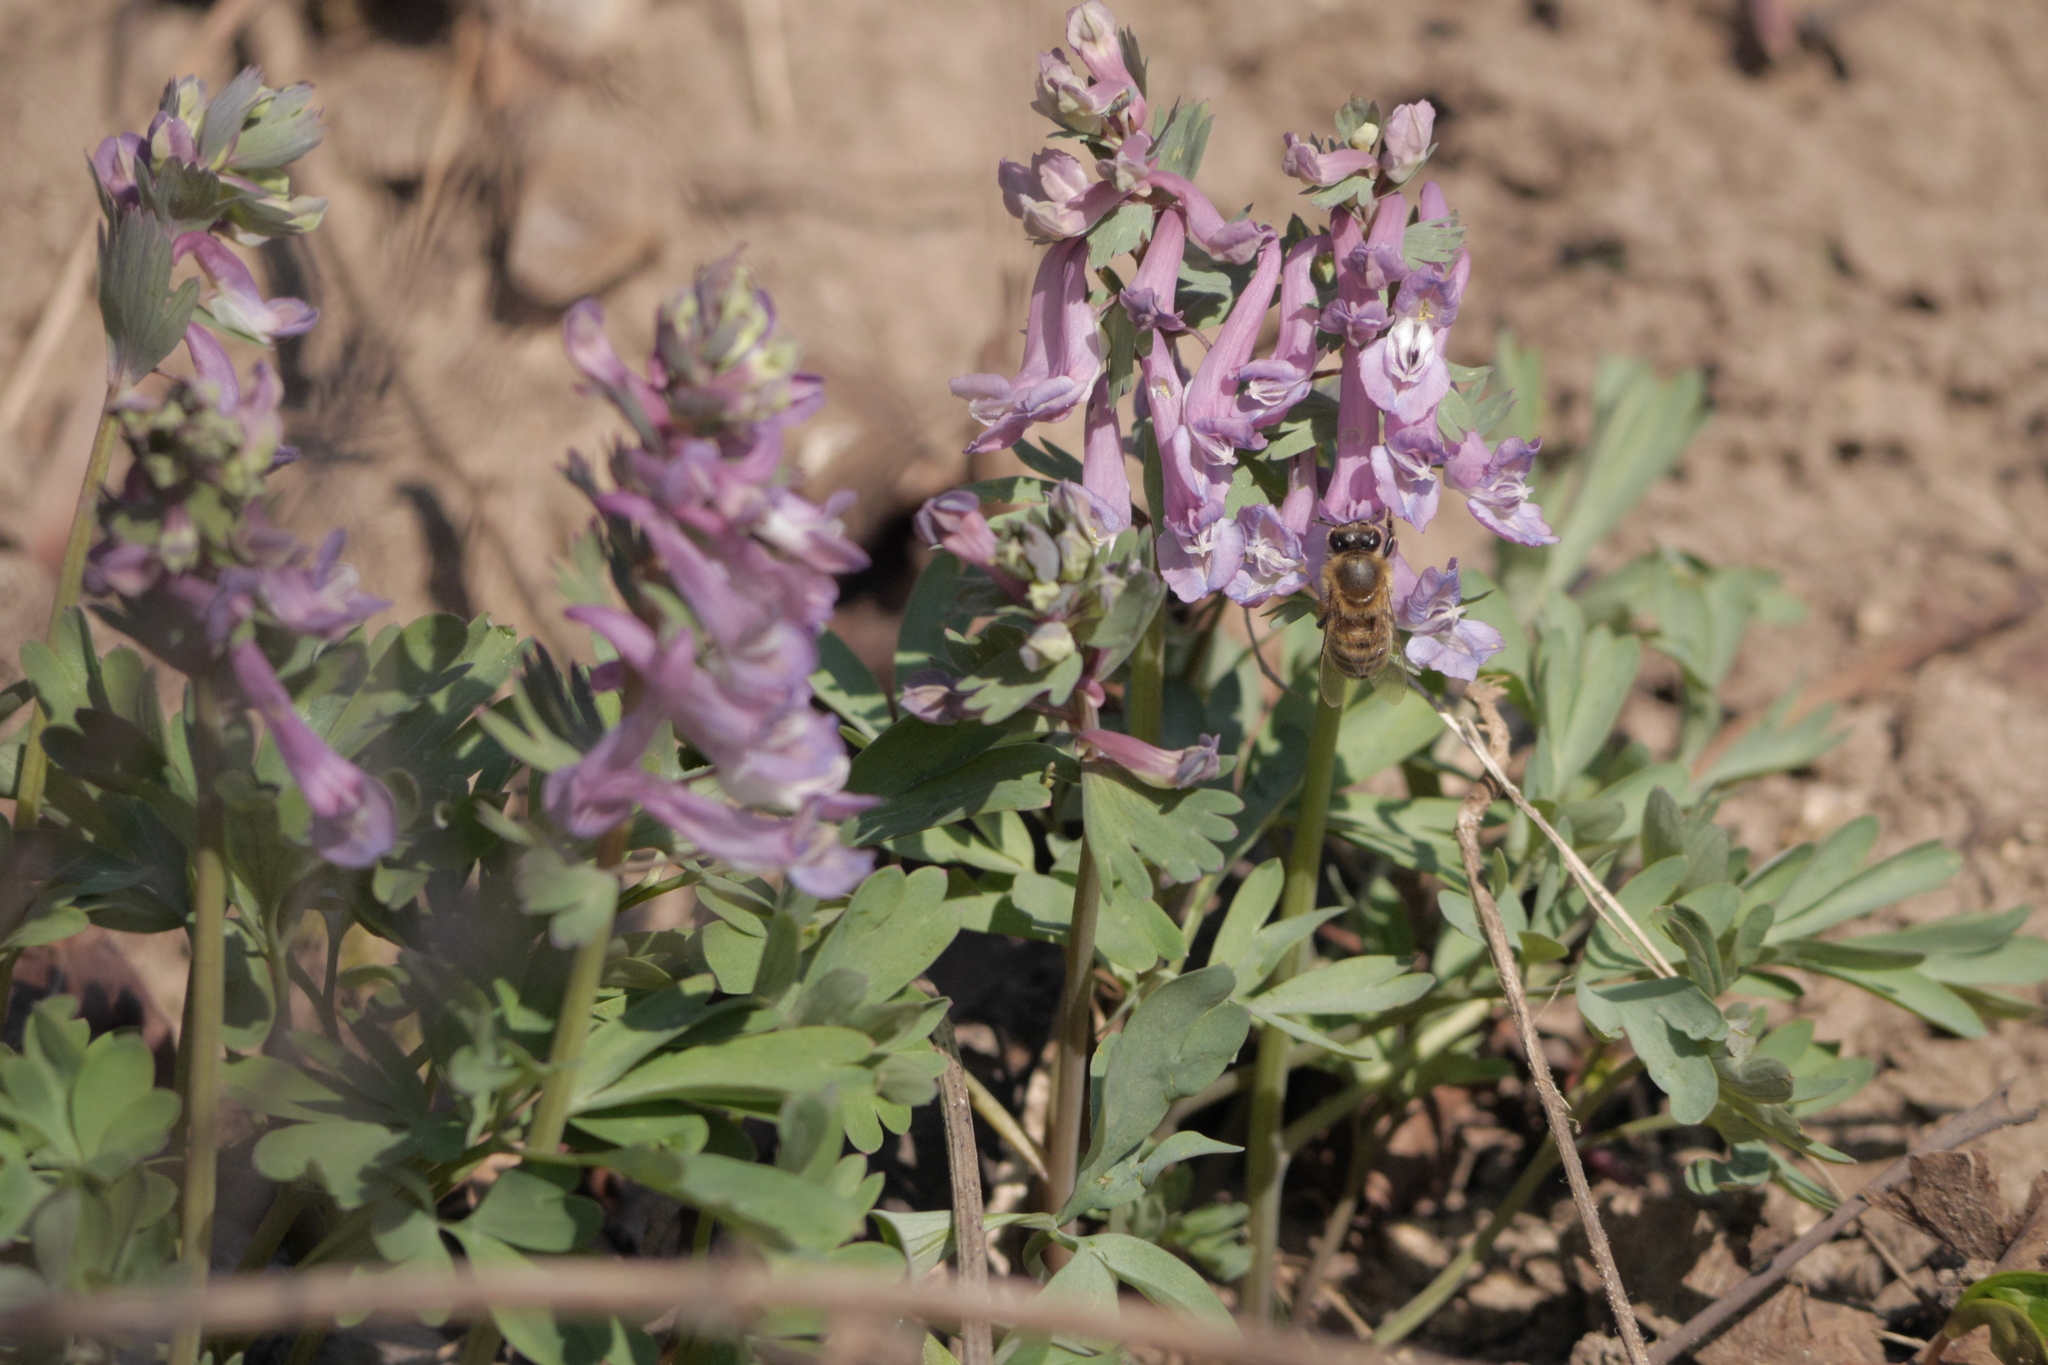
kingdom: Plantae
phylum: Tracheophyta
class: Magnoliopsida
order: Ranunculales
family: Papaveraceae
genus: Corydalis
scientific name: Corydalis solida
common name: Bird-in-a-bush
